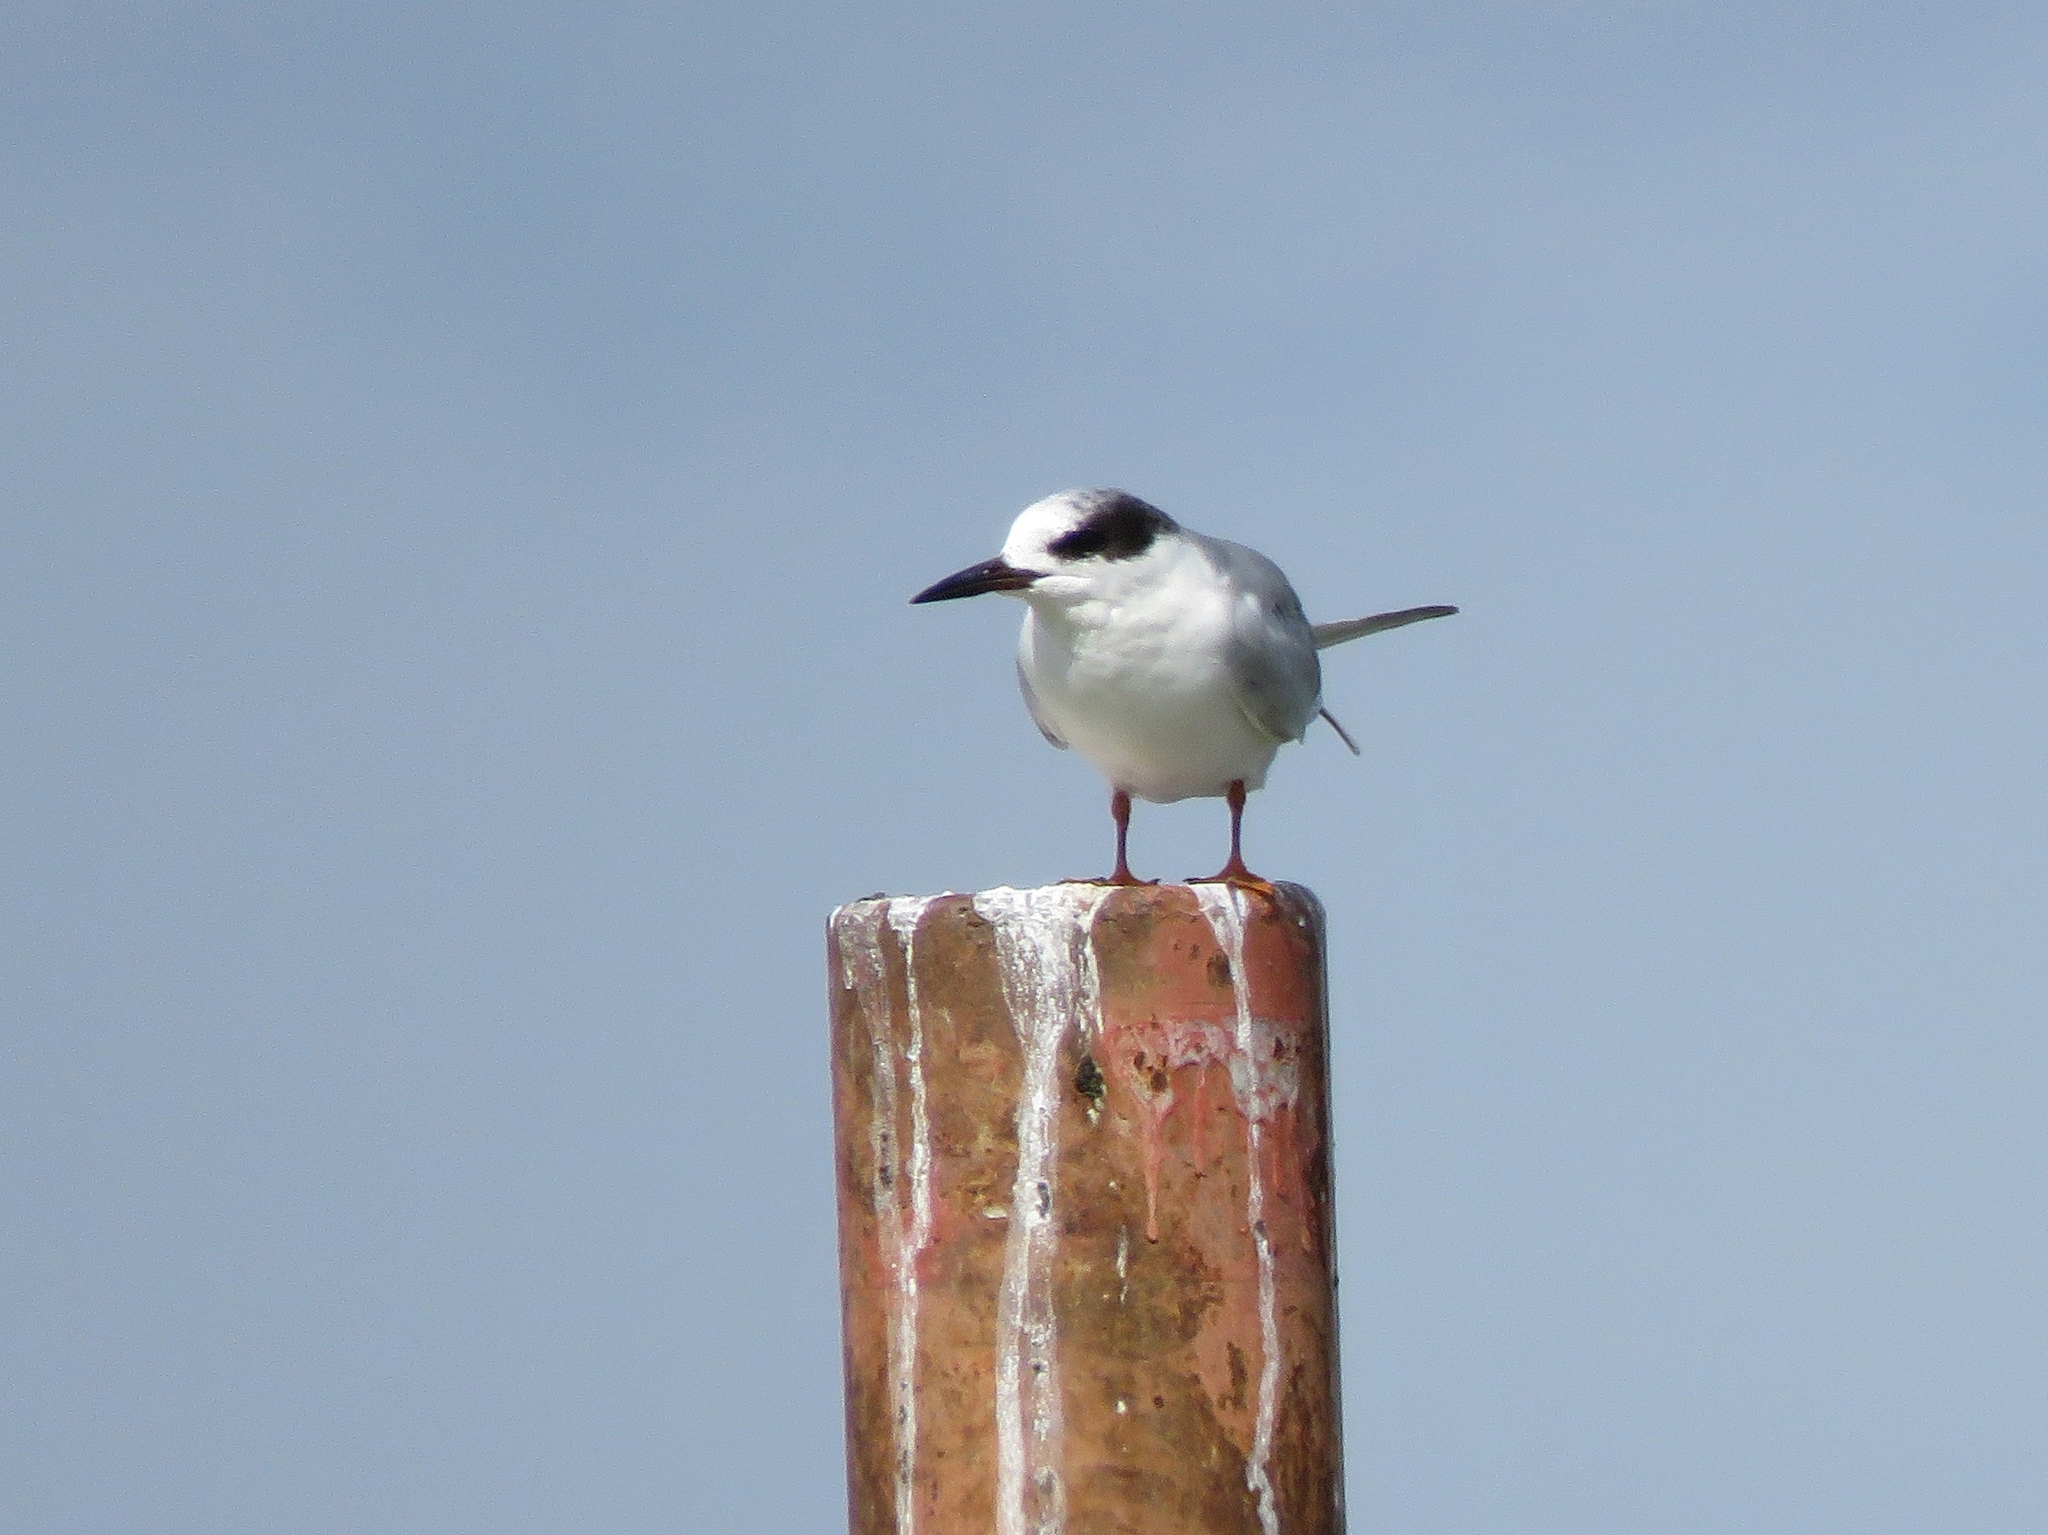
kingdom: Animalia
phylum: Chordata
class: Aves
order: Charadriiformes
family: Laridae
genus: Sterna
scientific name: Sterna forsteri
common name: Forster's tern
